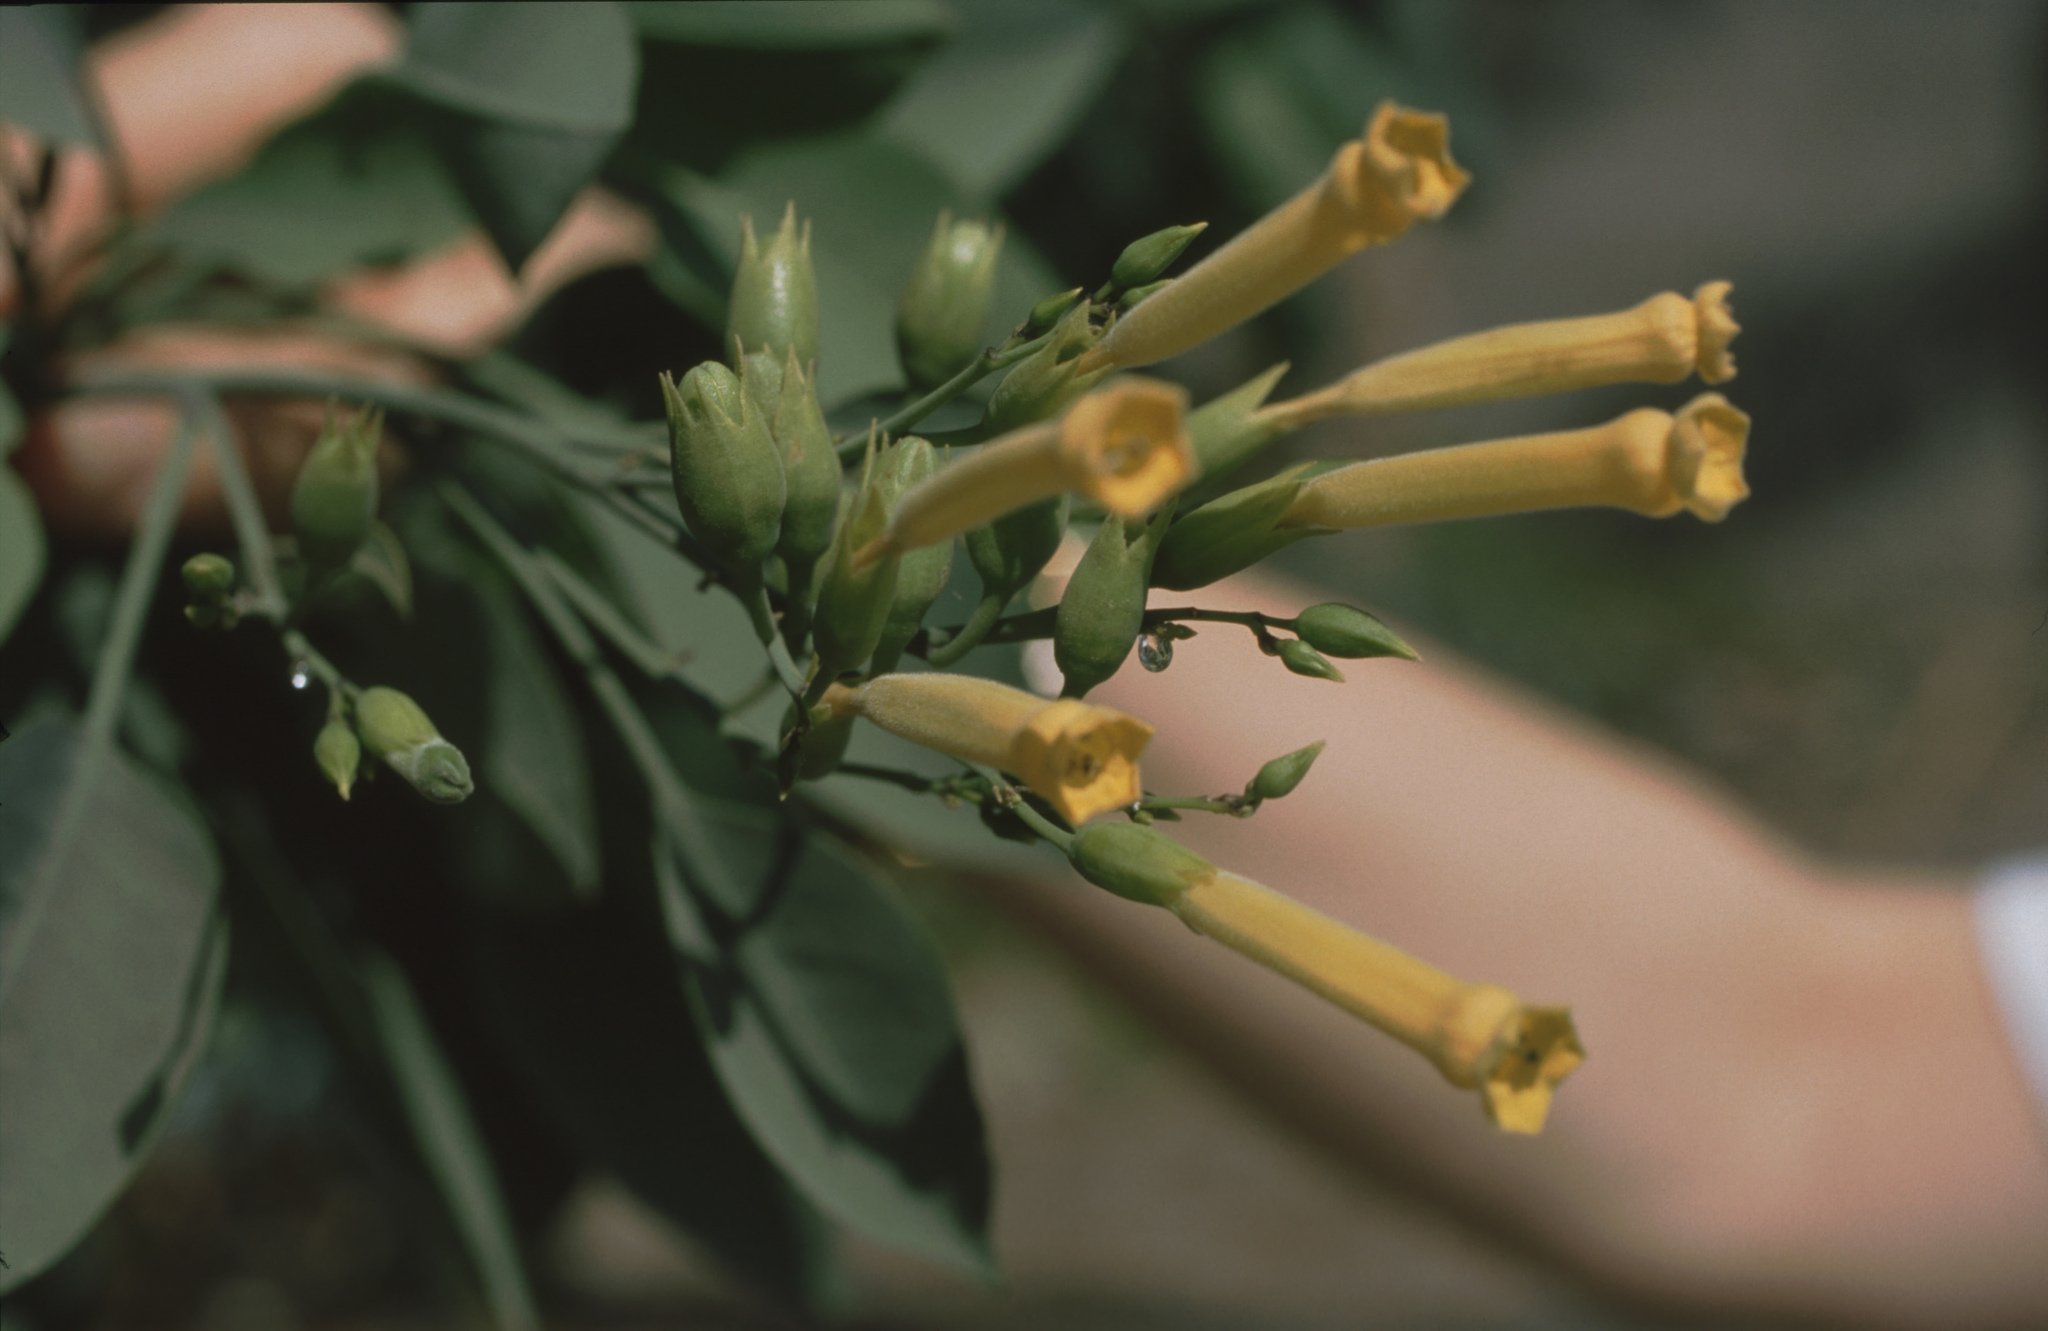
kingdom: Plantae
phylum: Tracheophyta
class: Magnoliopsida
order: Solanales
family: Solanaceae
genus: Nicotiana
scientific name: Nicotiana glauca
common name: Tree tobacco
